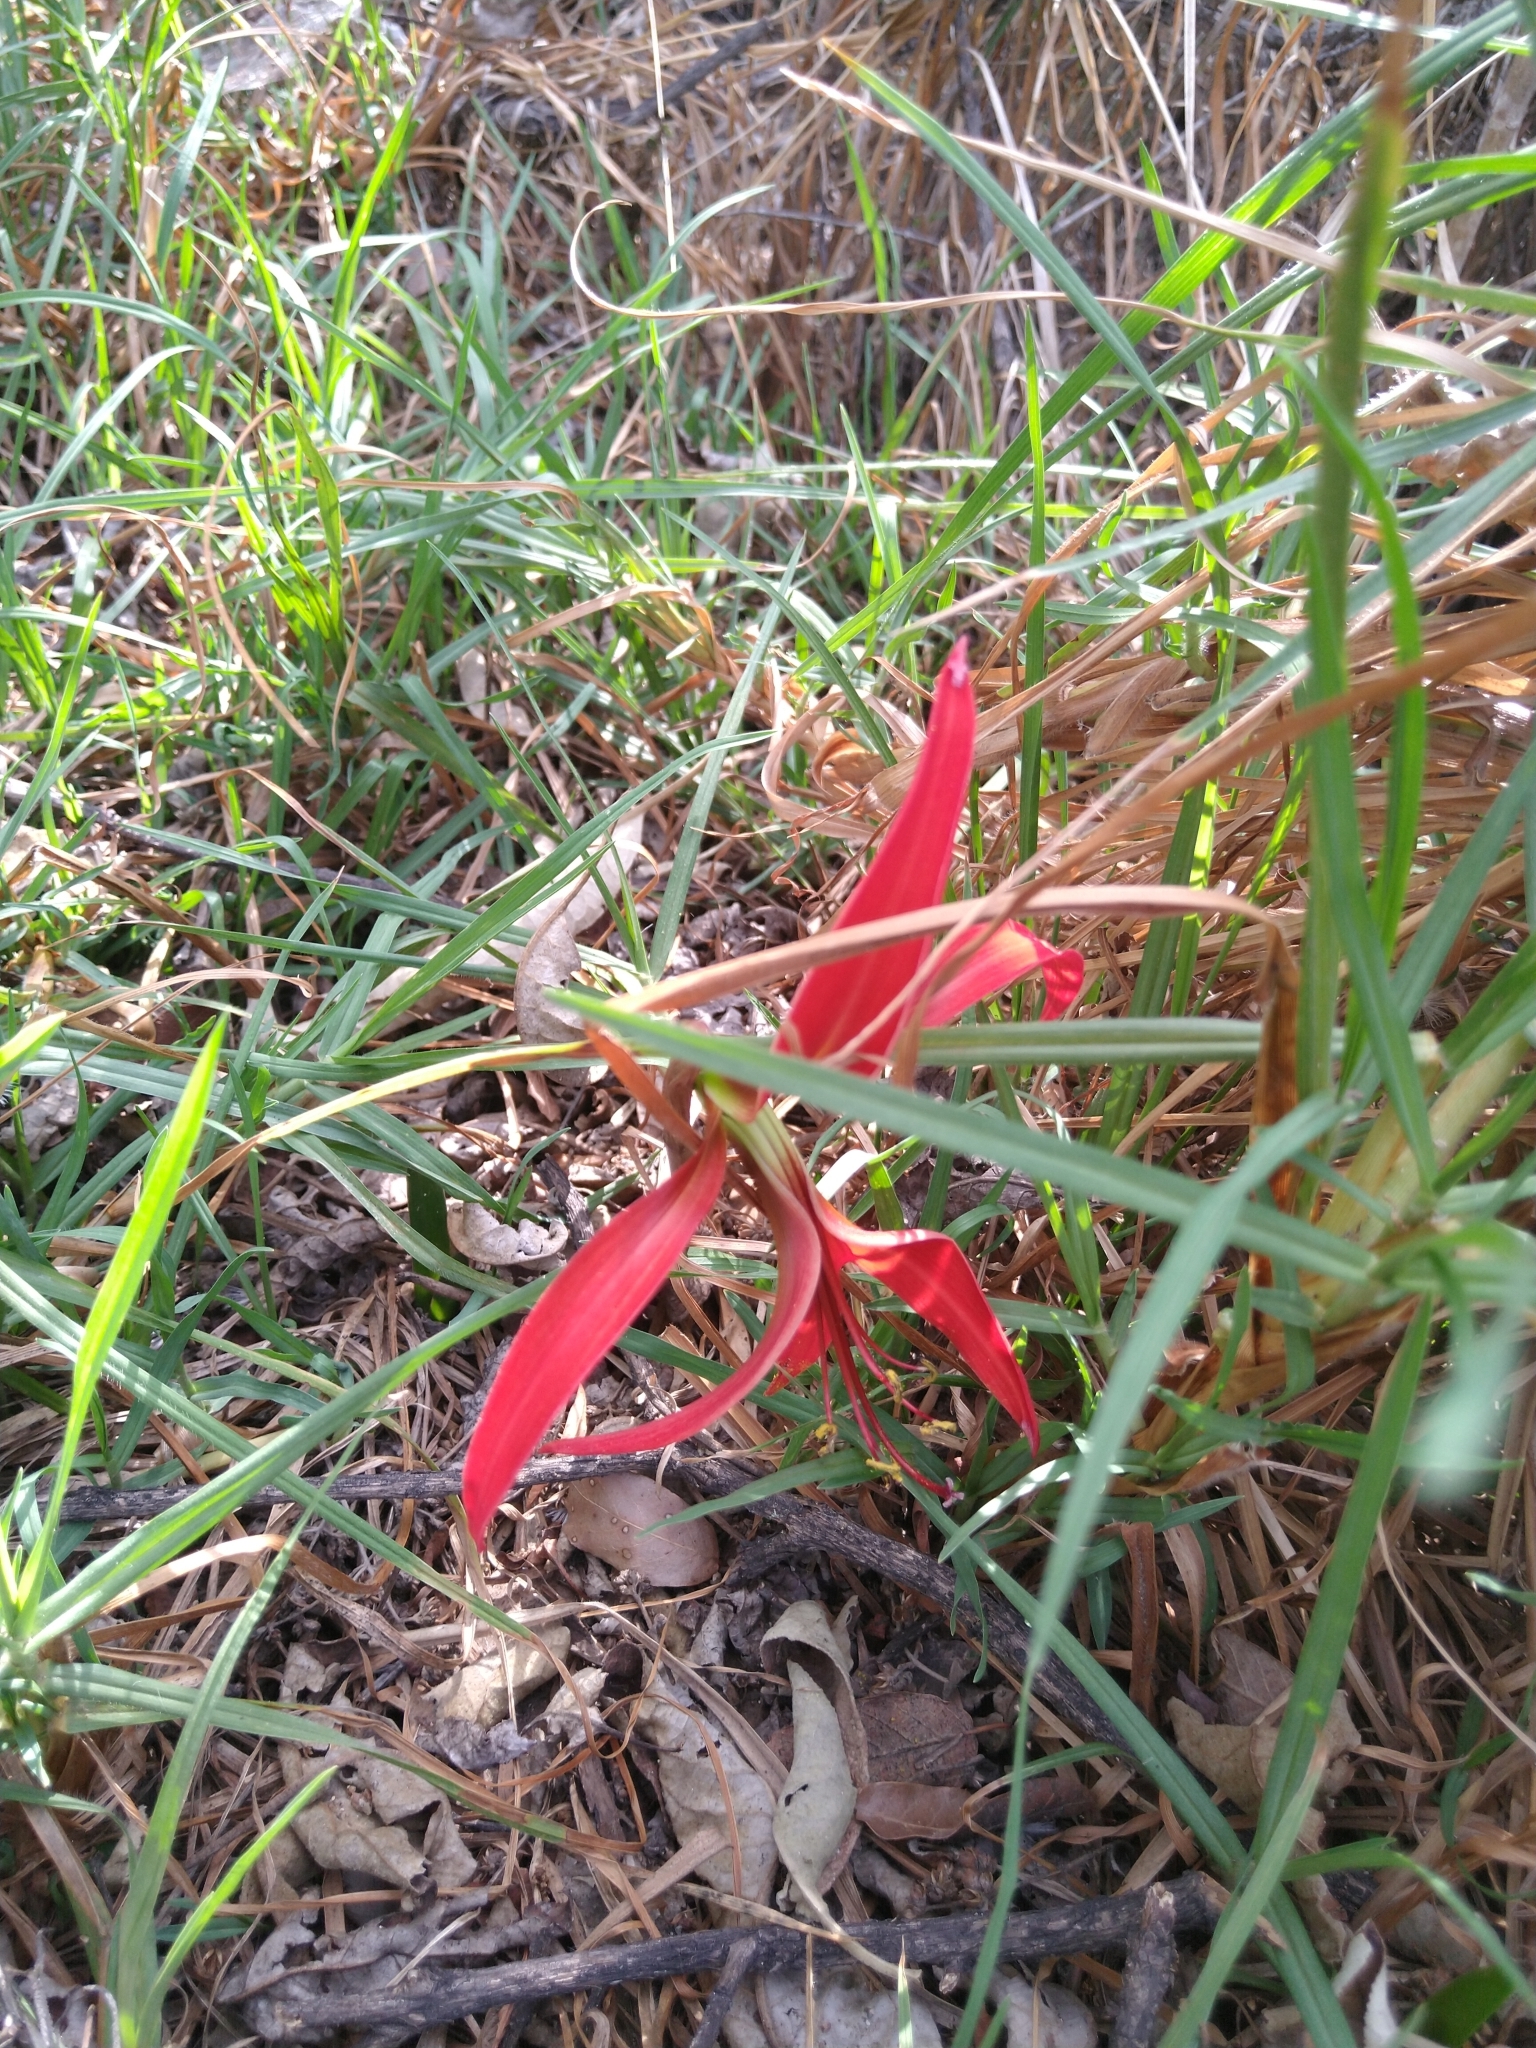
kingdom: Plantae
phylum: Tracheophyta
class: Liliopsida
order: Asparagales
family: Amaryllidaceae
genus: Sprekelia
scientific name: Sprekelia formosissima
